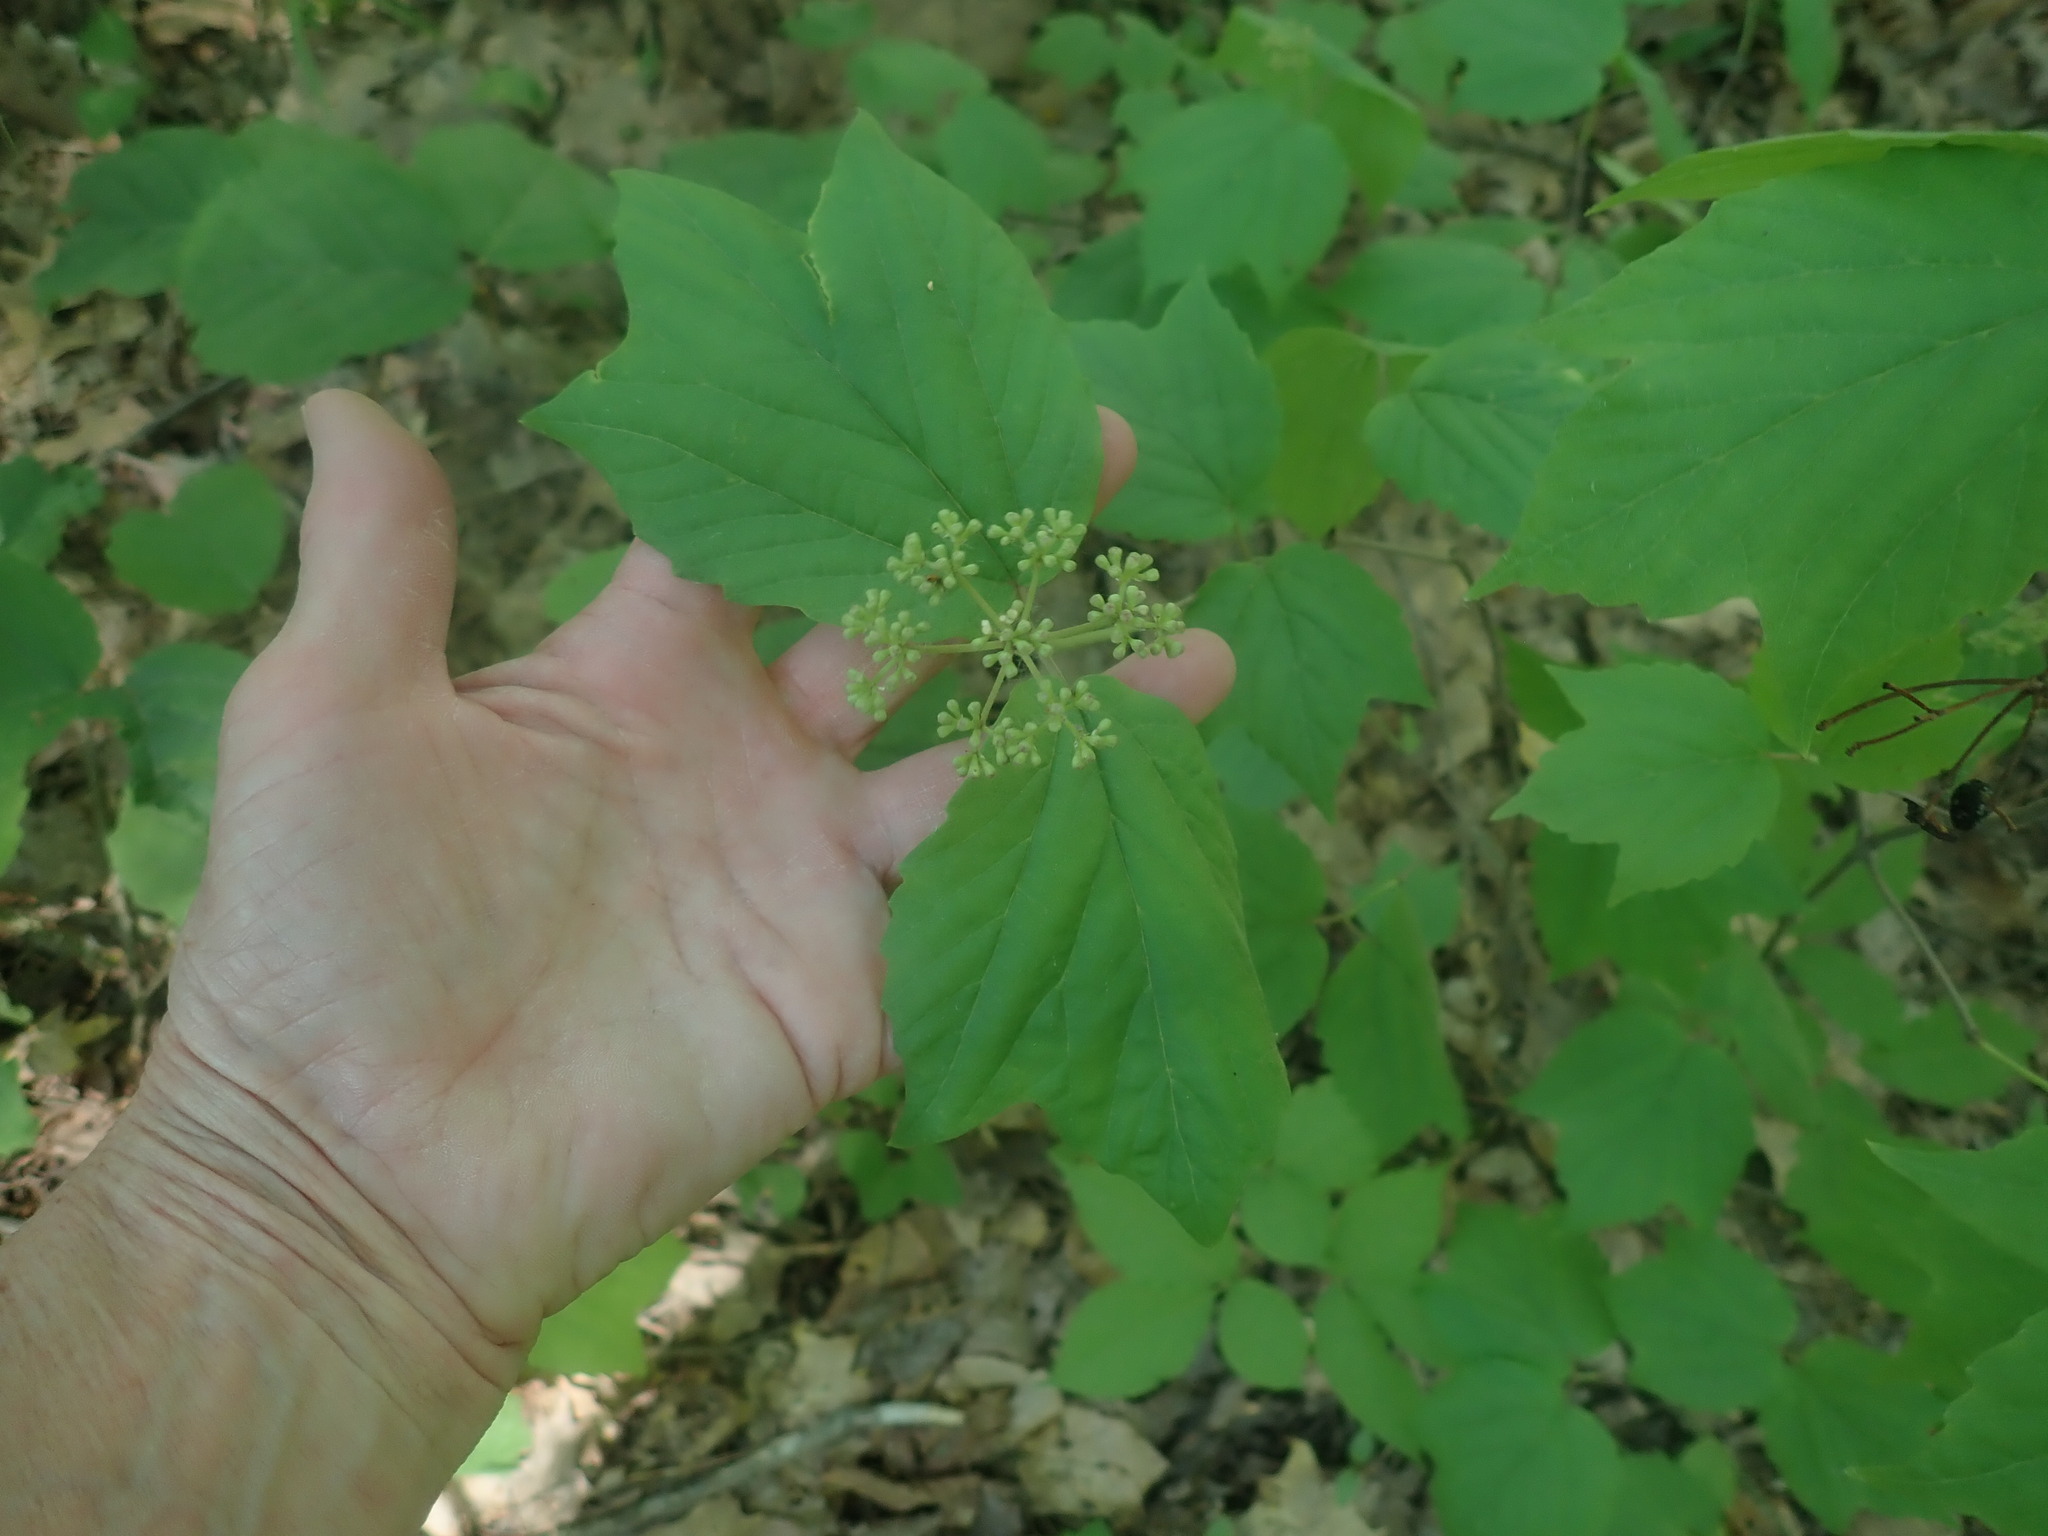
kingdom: Plantae
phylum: Tracheophyta
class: Magnoliopsida
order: Dipsacales
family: Viburnaceae
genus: Viburnum
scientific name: Viburnum acerifolium
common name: Dockmackie
